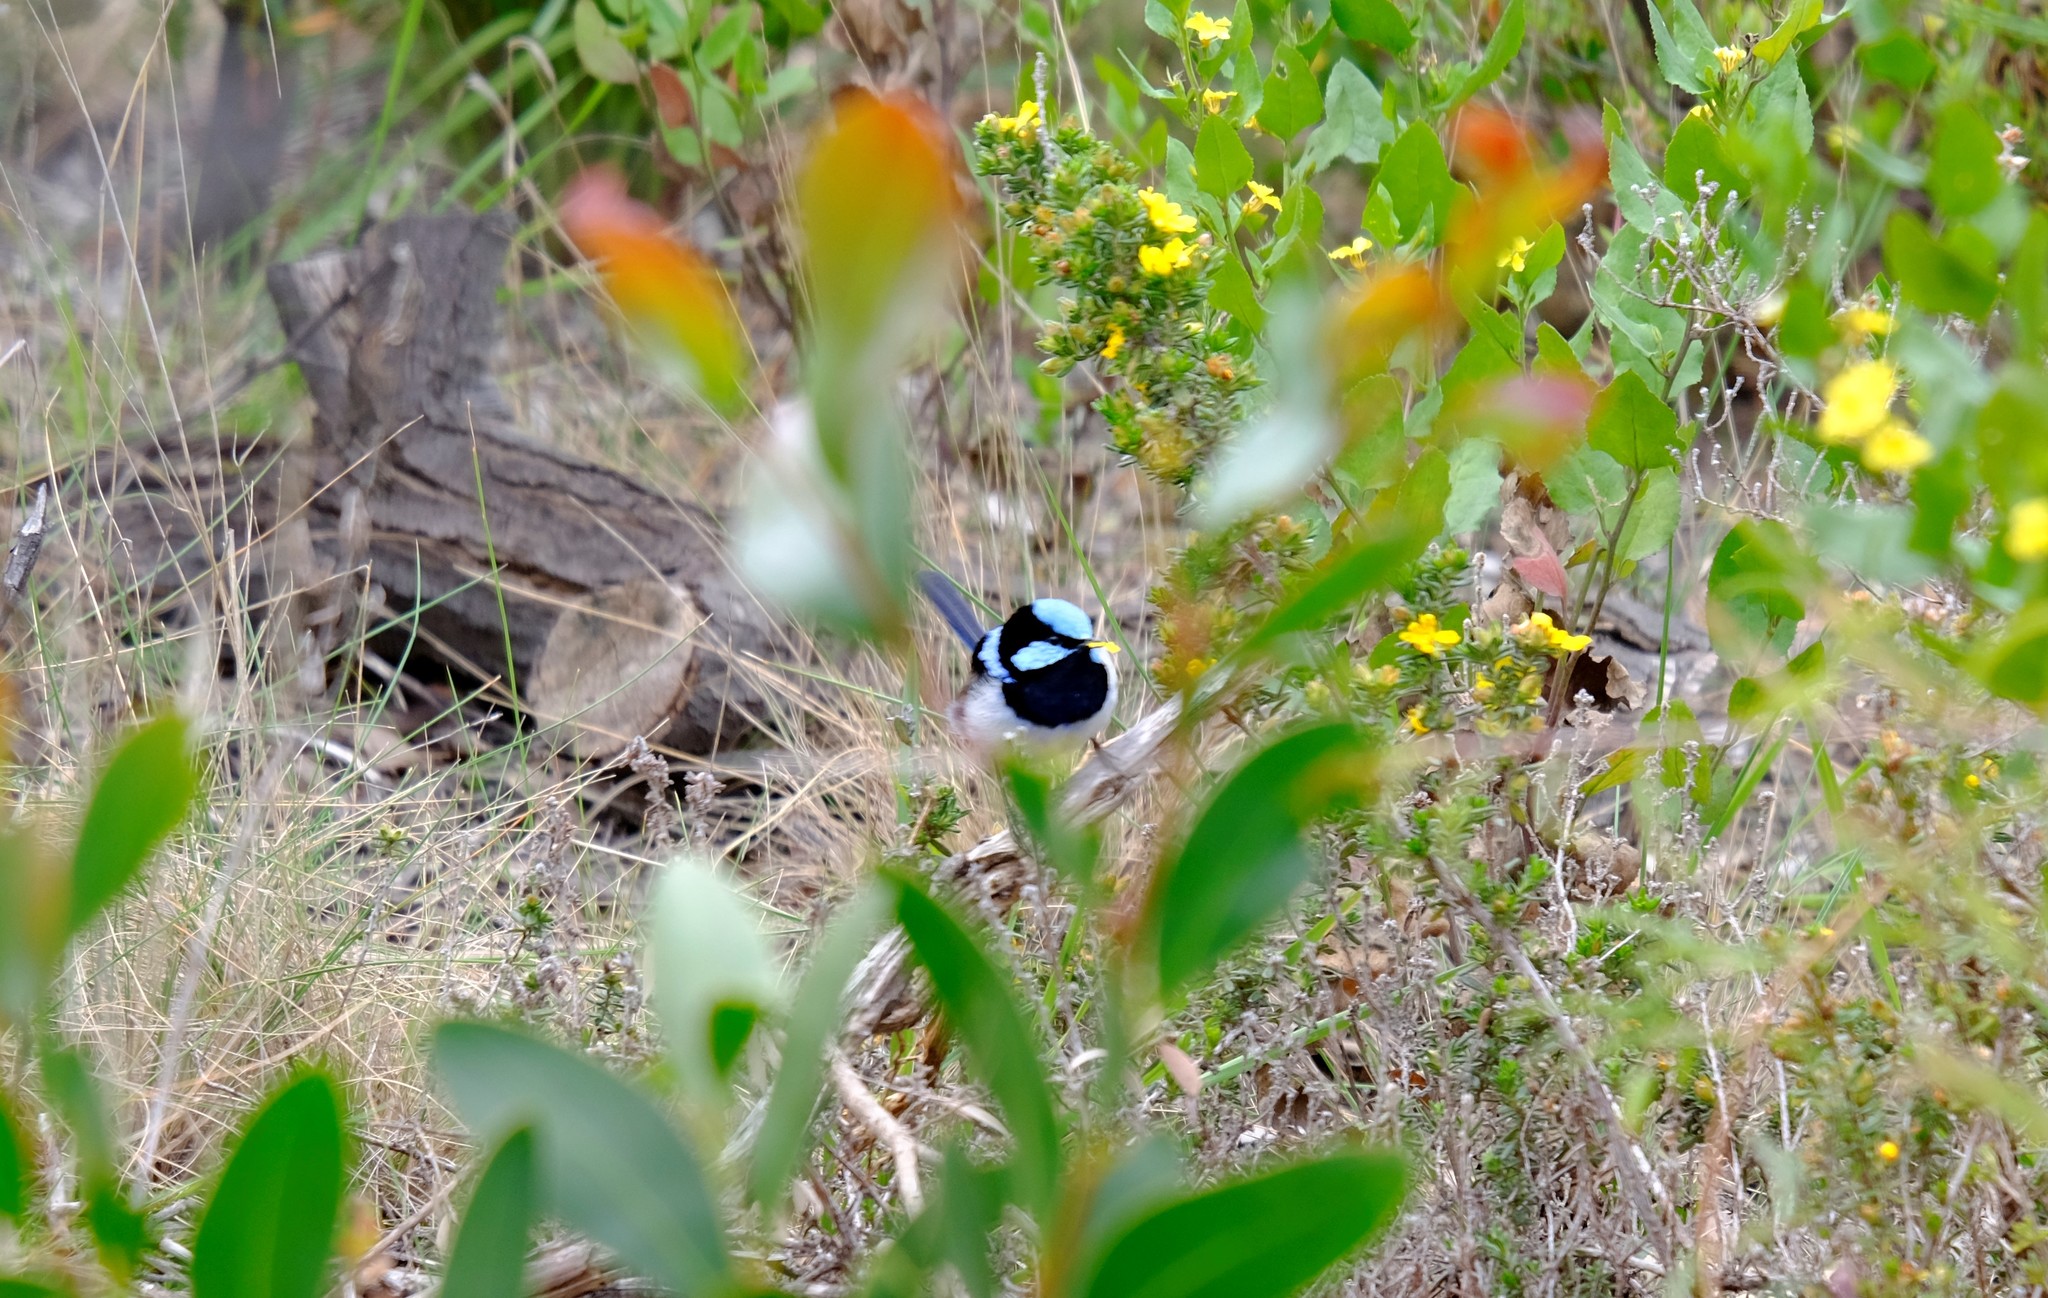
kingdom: Animalia
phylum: Chordata
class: Aves
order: Passeriformes
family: Maluridae
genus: Malurus
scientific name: Malurus cyaneus
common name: Superb fairywren
